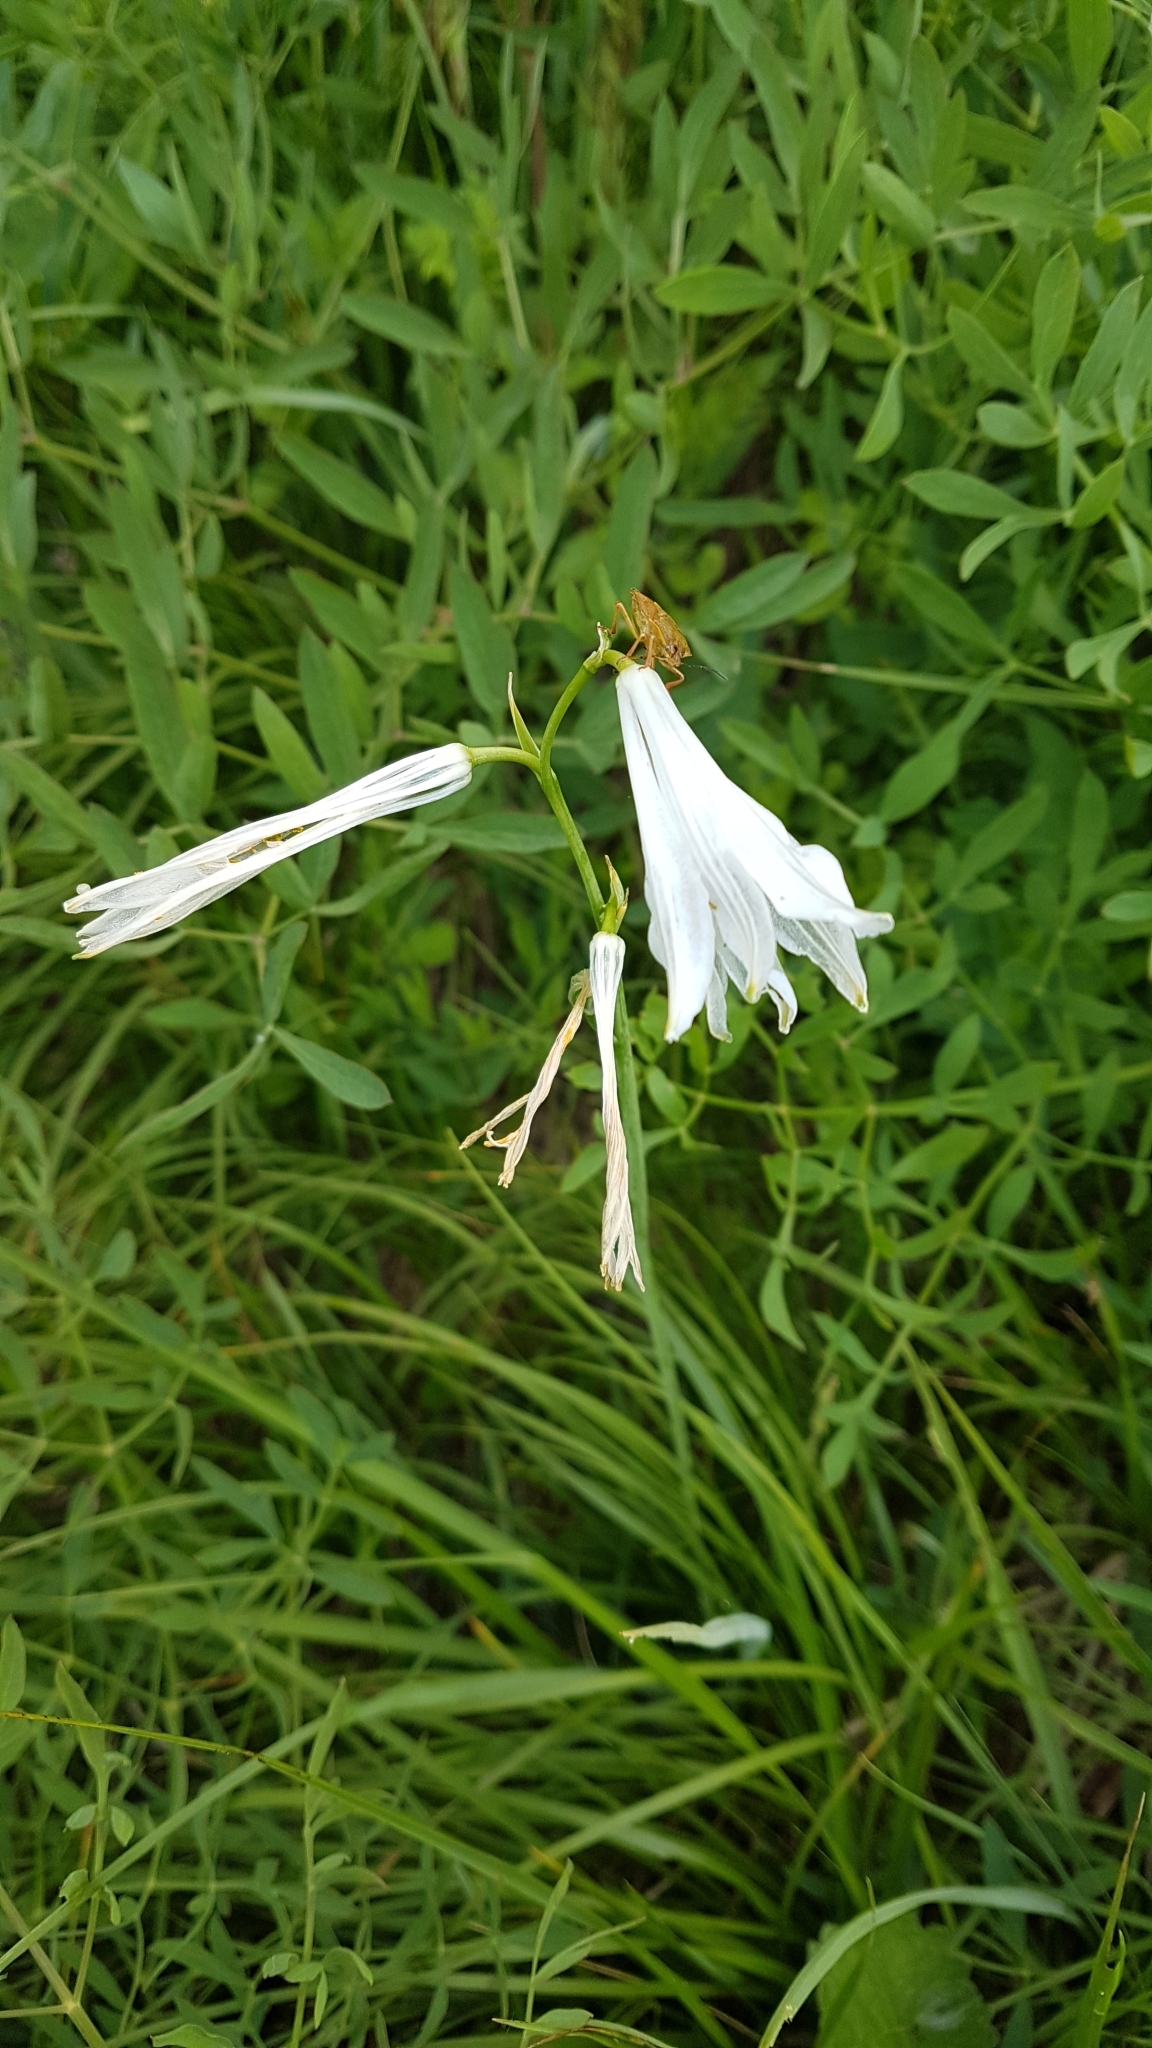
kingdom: Plantae
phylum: Tracheophyta
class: Liliopsida
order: Asparagales
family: Asparagaceae
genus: Paradisea
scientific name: Paradisea liliastrum
